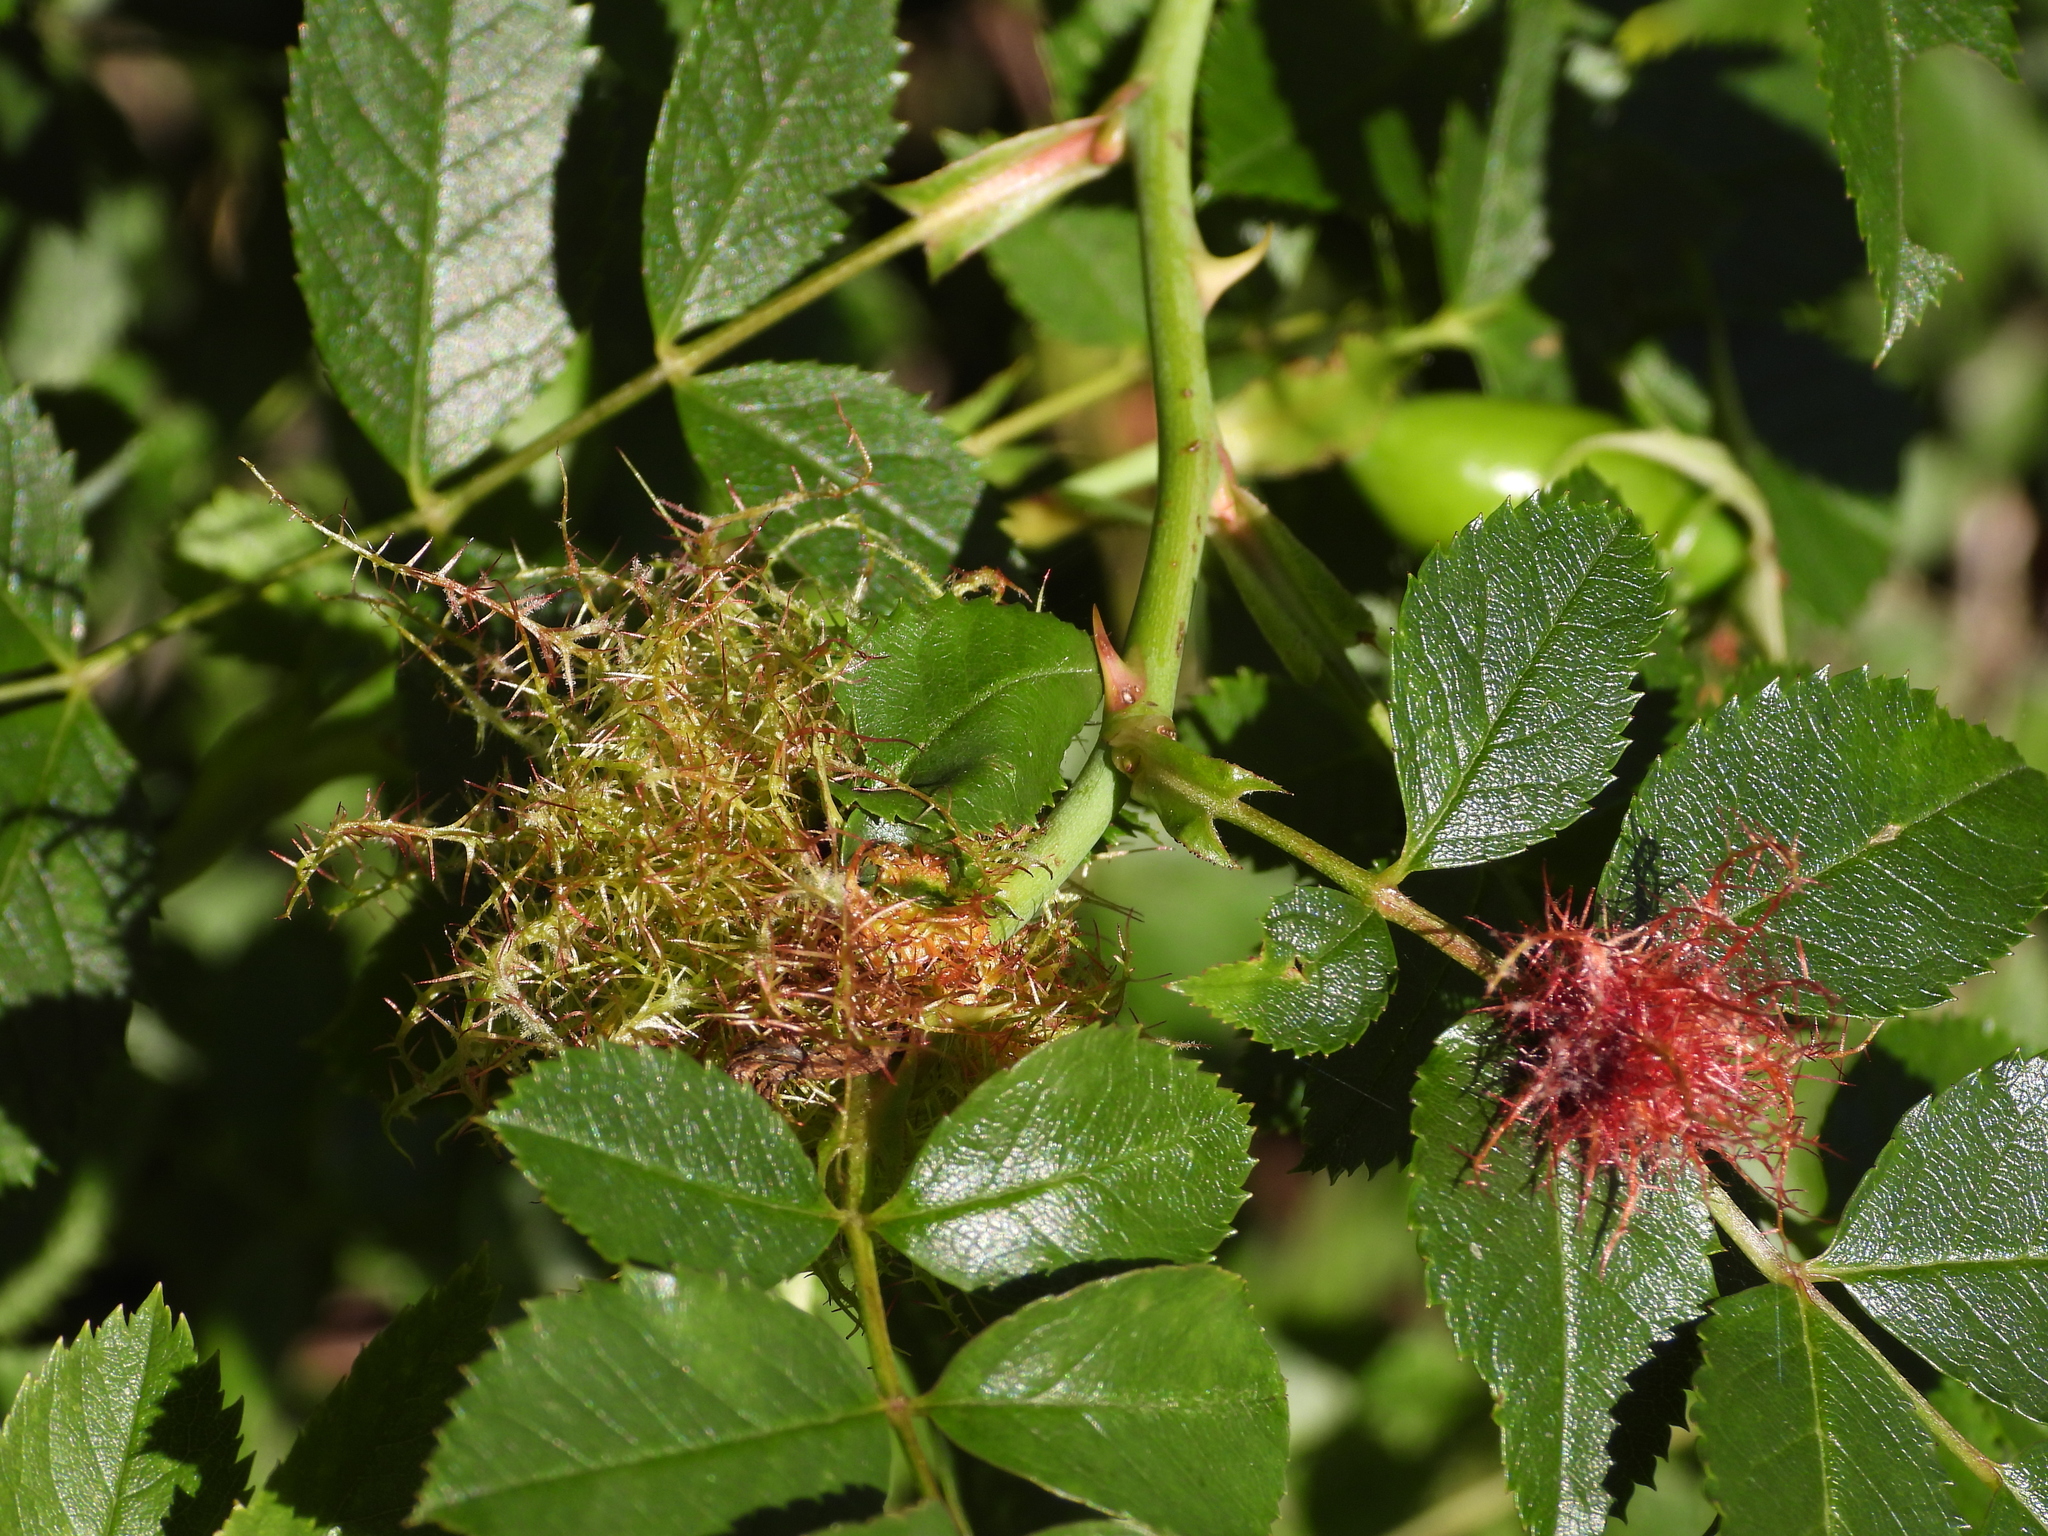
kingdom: Animalia
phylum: Arthropoda
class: Insecta
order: Hymenoptera
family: Cynipidae
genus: Diplolepis
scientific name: Diplolepis rosae
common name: Bedeguar gall
